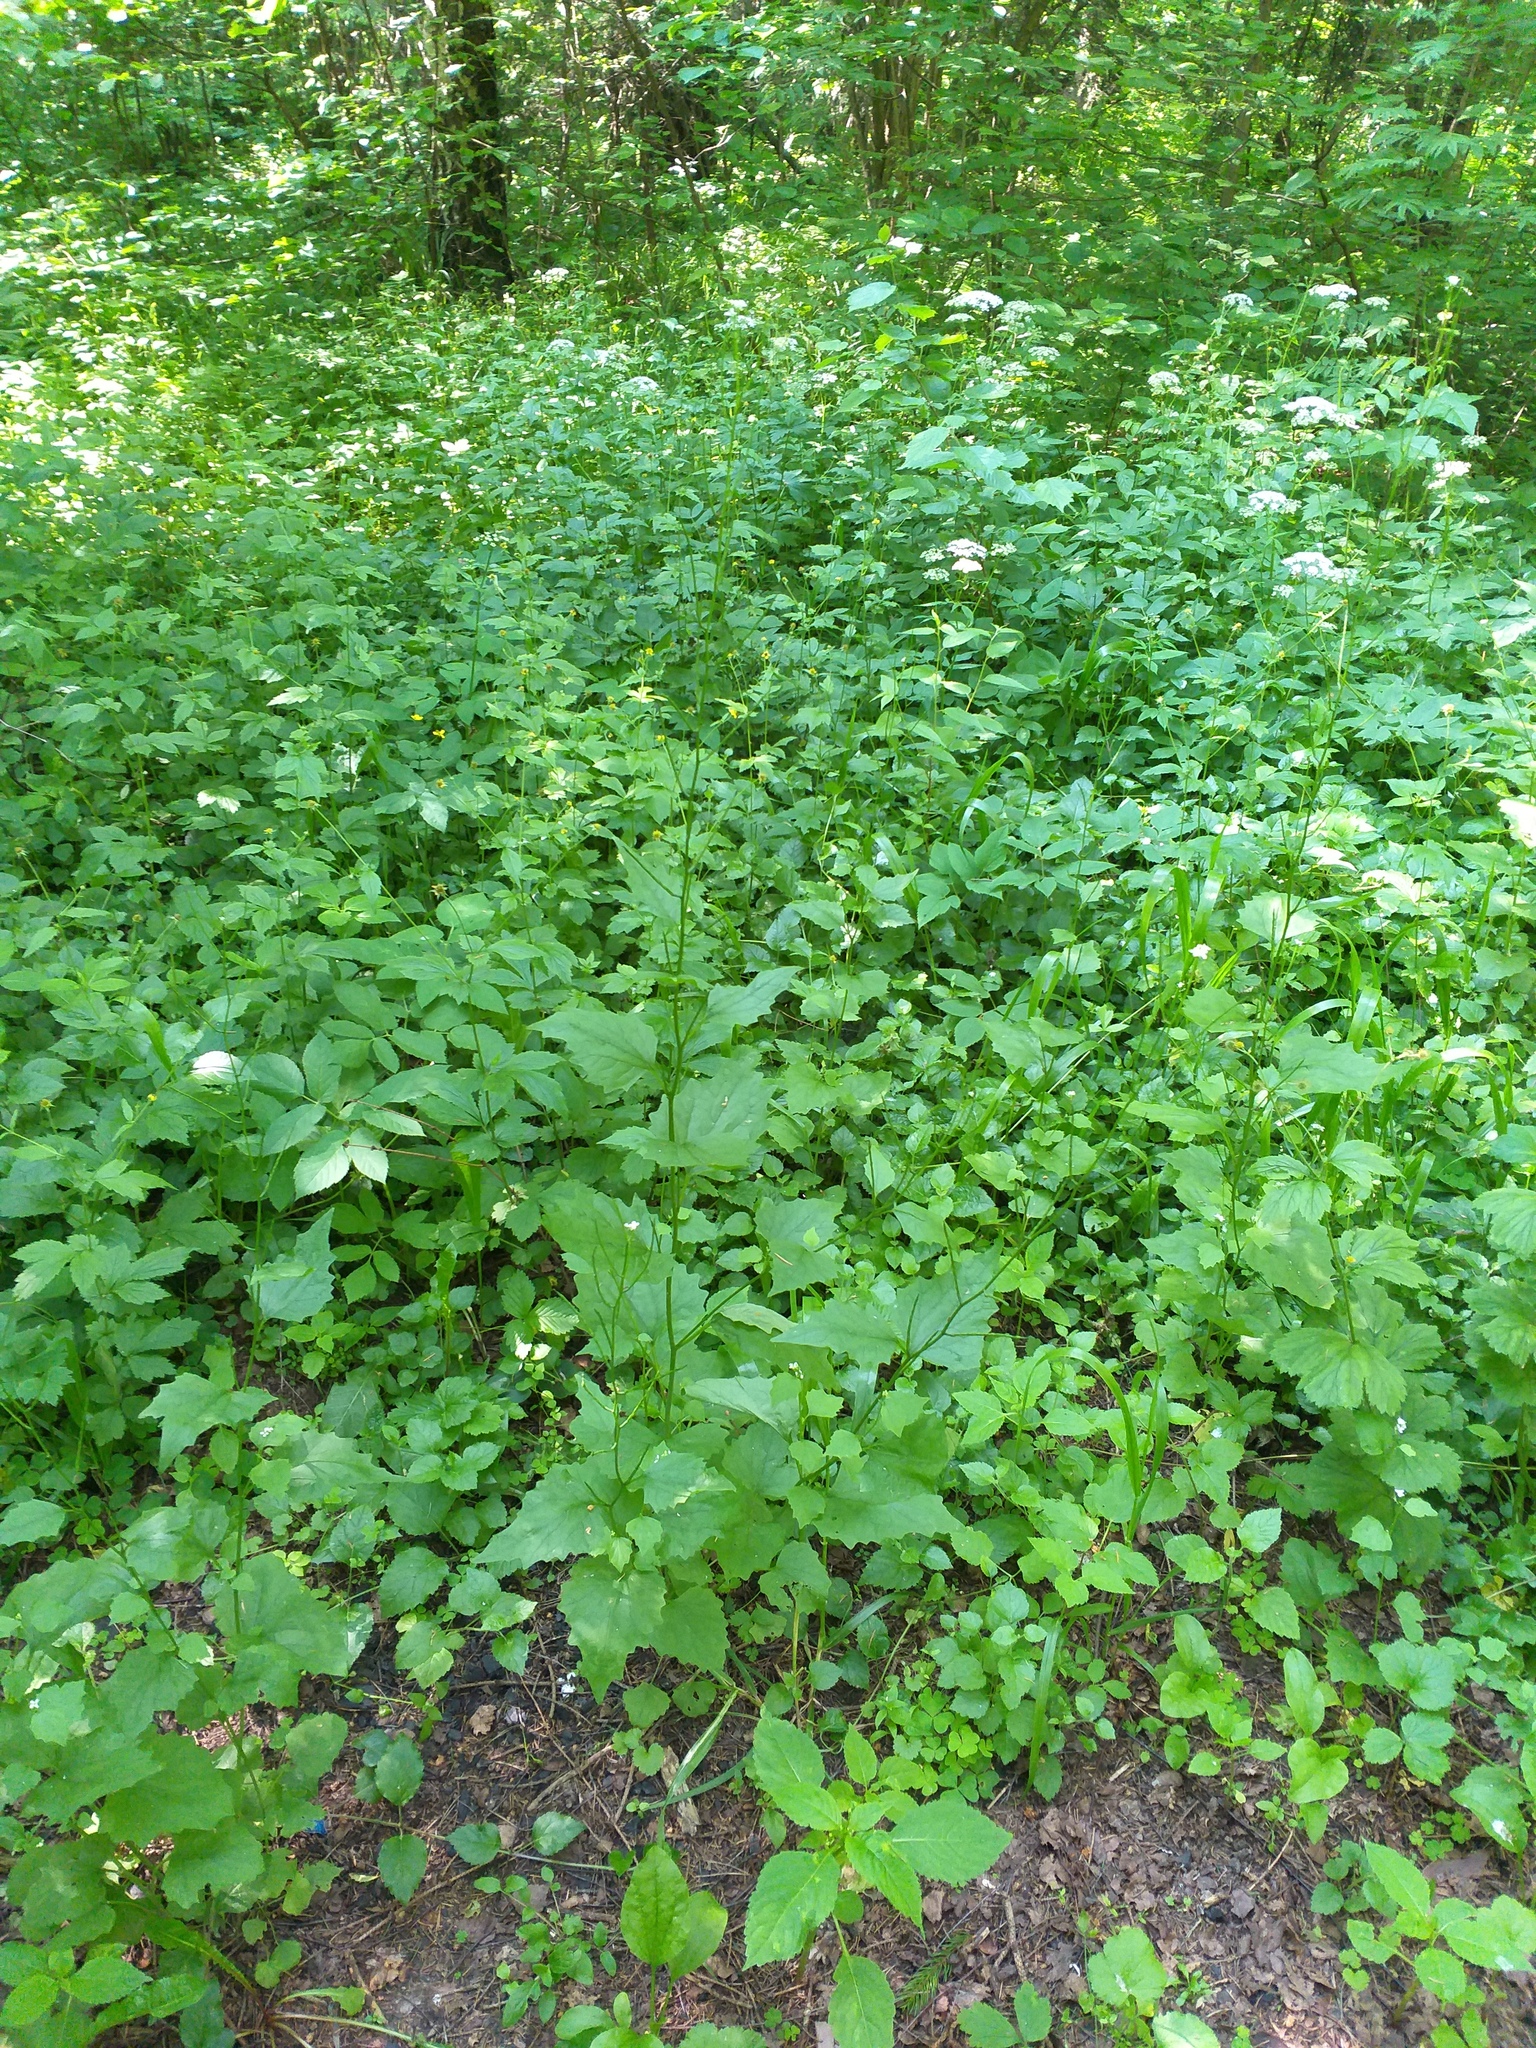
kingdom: Plantae
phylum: Tracheophyta
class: Magnoliopsida
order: Brassicales
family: Brassicaceae
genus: Alliaria
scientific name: Alliaria petiolata
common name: Garlic mustard
